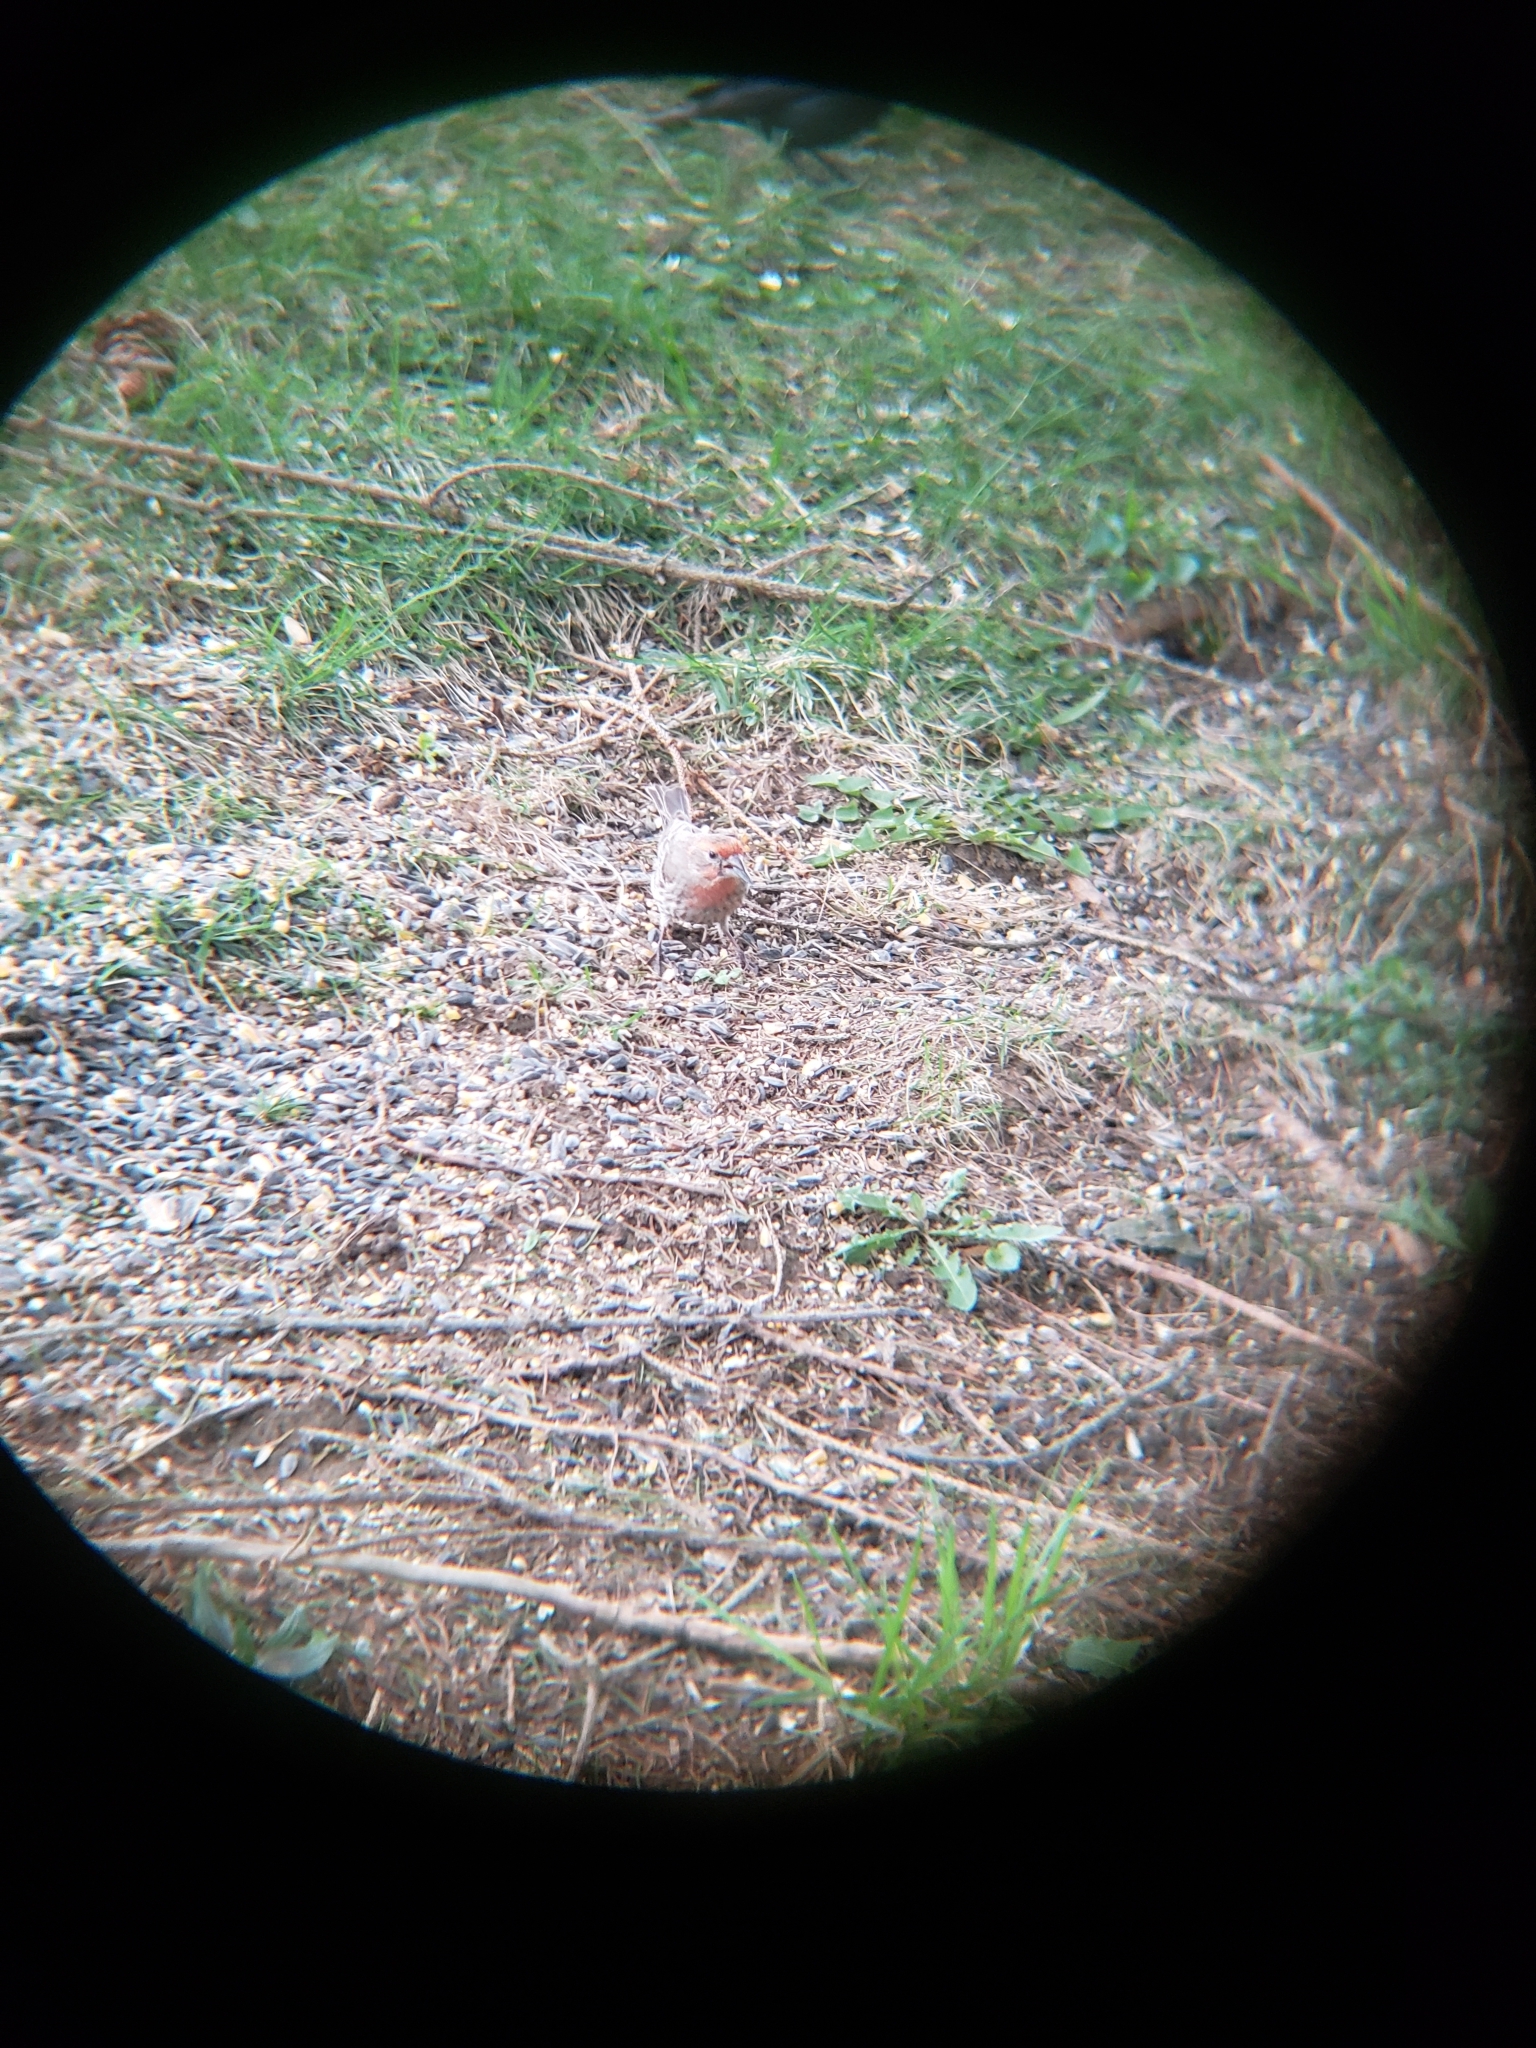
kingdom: Animalia
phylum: Chordata
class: Aves
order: Passeriformes
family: Fringillidae
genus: Haemorhous
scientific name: Haemorhous mexicanus
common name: House finch
